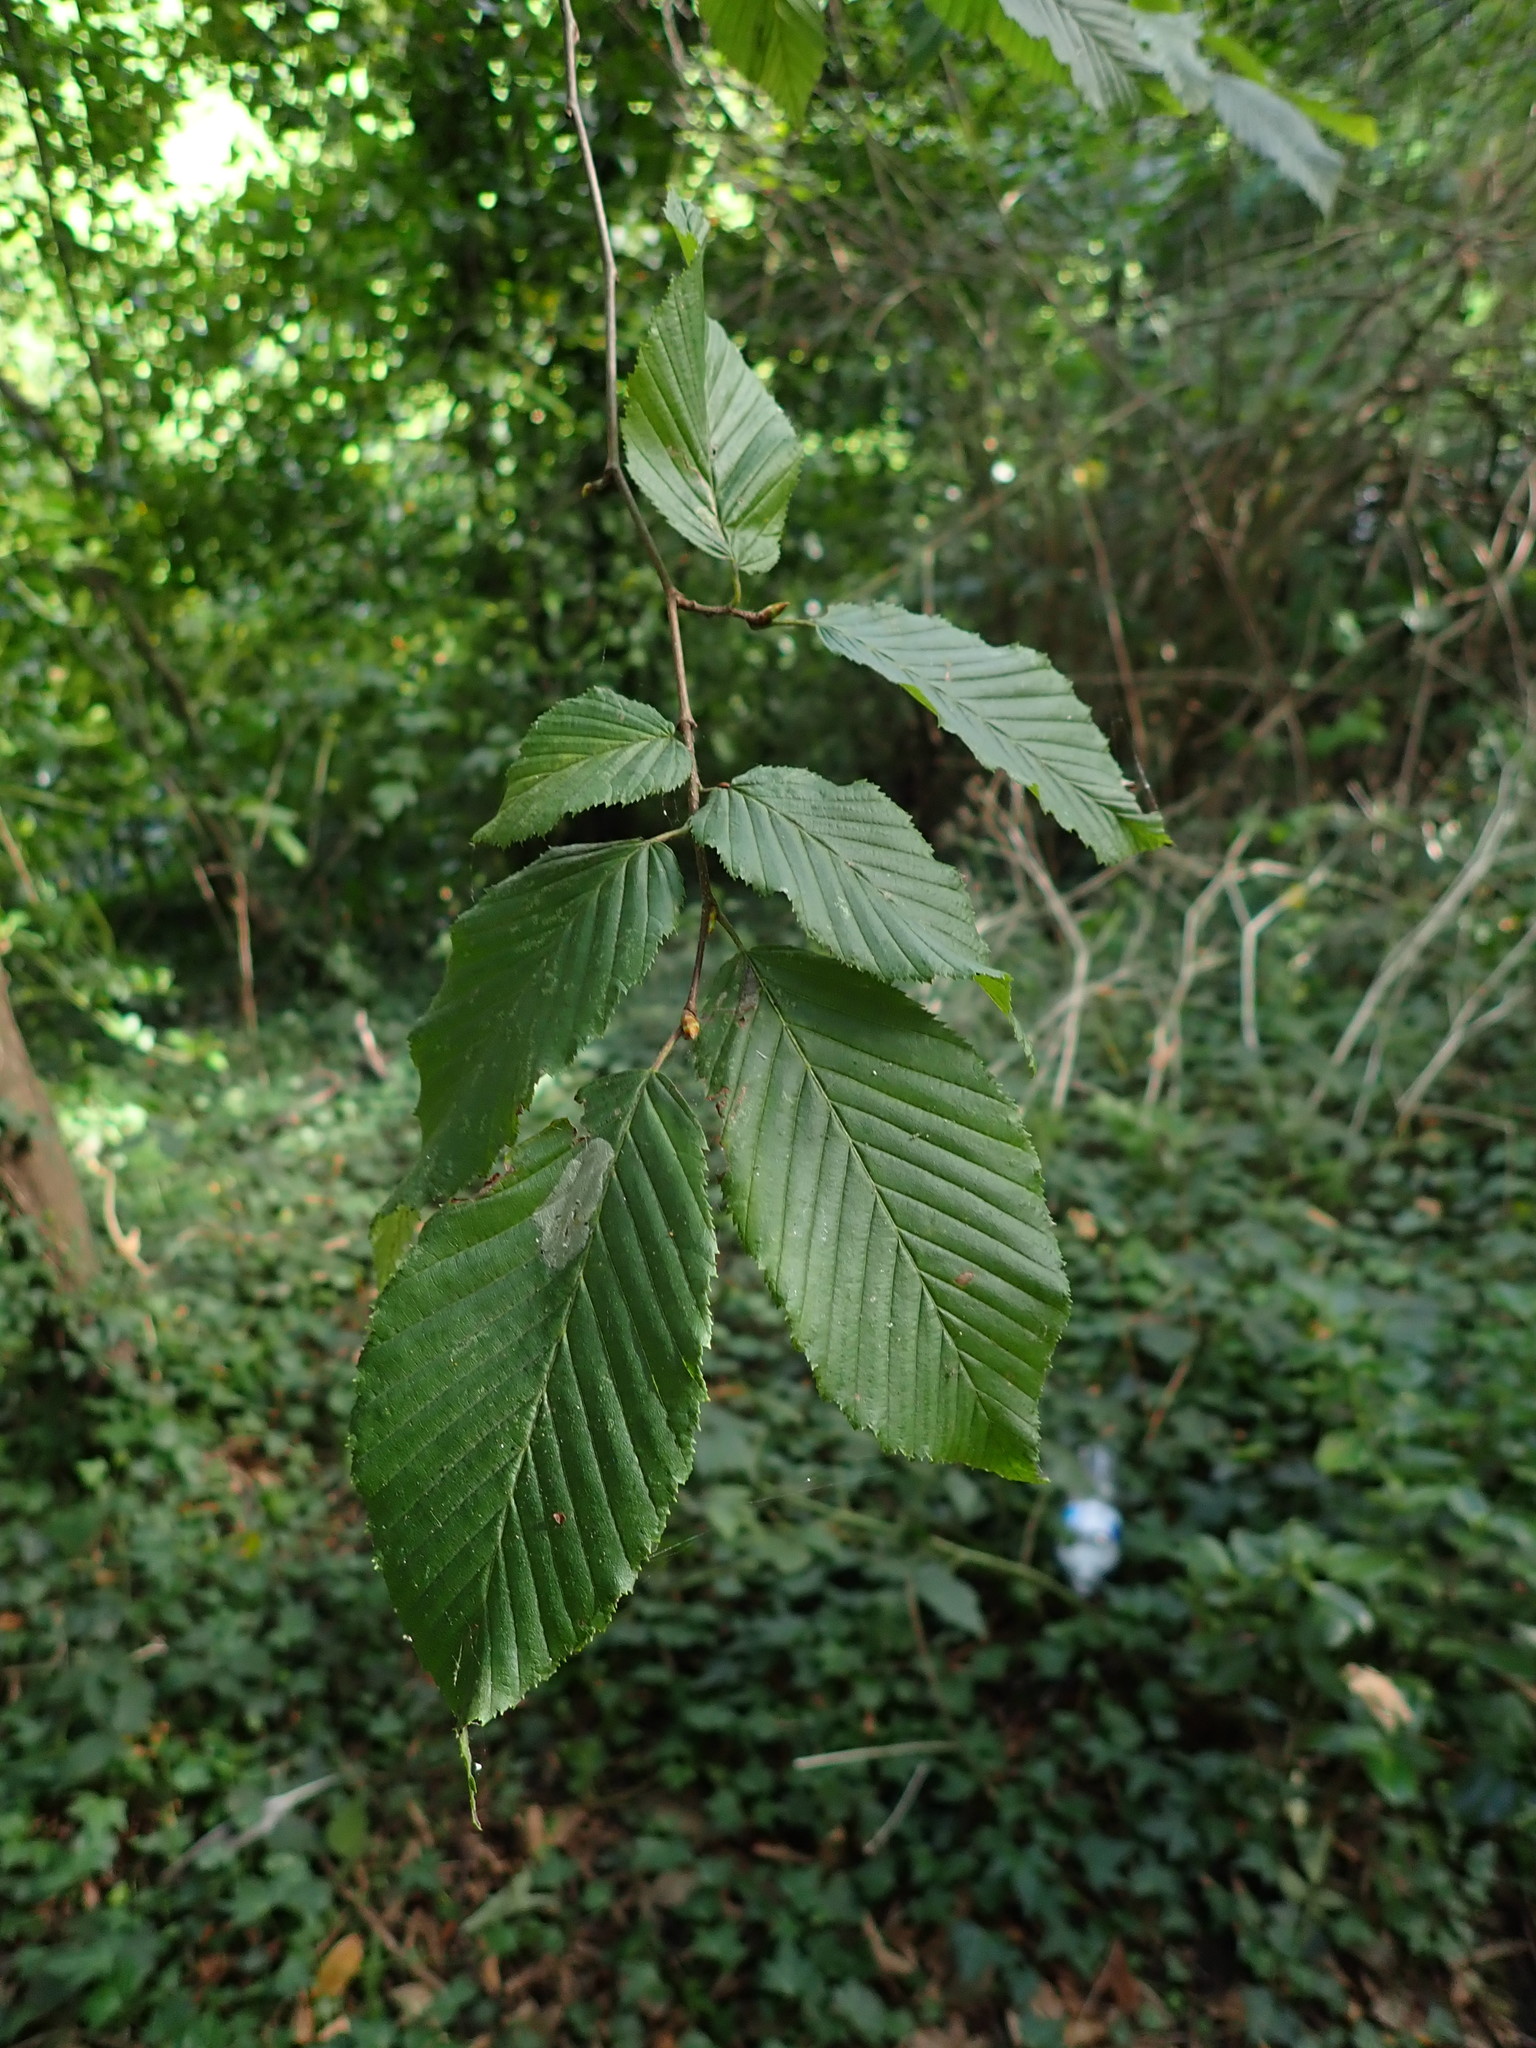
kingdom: Plantae
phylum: Tracheophyta
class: Magnoliopsida
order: Fagales
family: Betulaceae
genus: Carpinus
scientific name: Carpinus betulus
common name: Hornbeam
